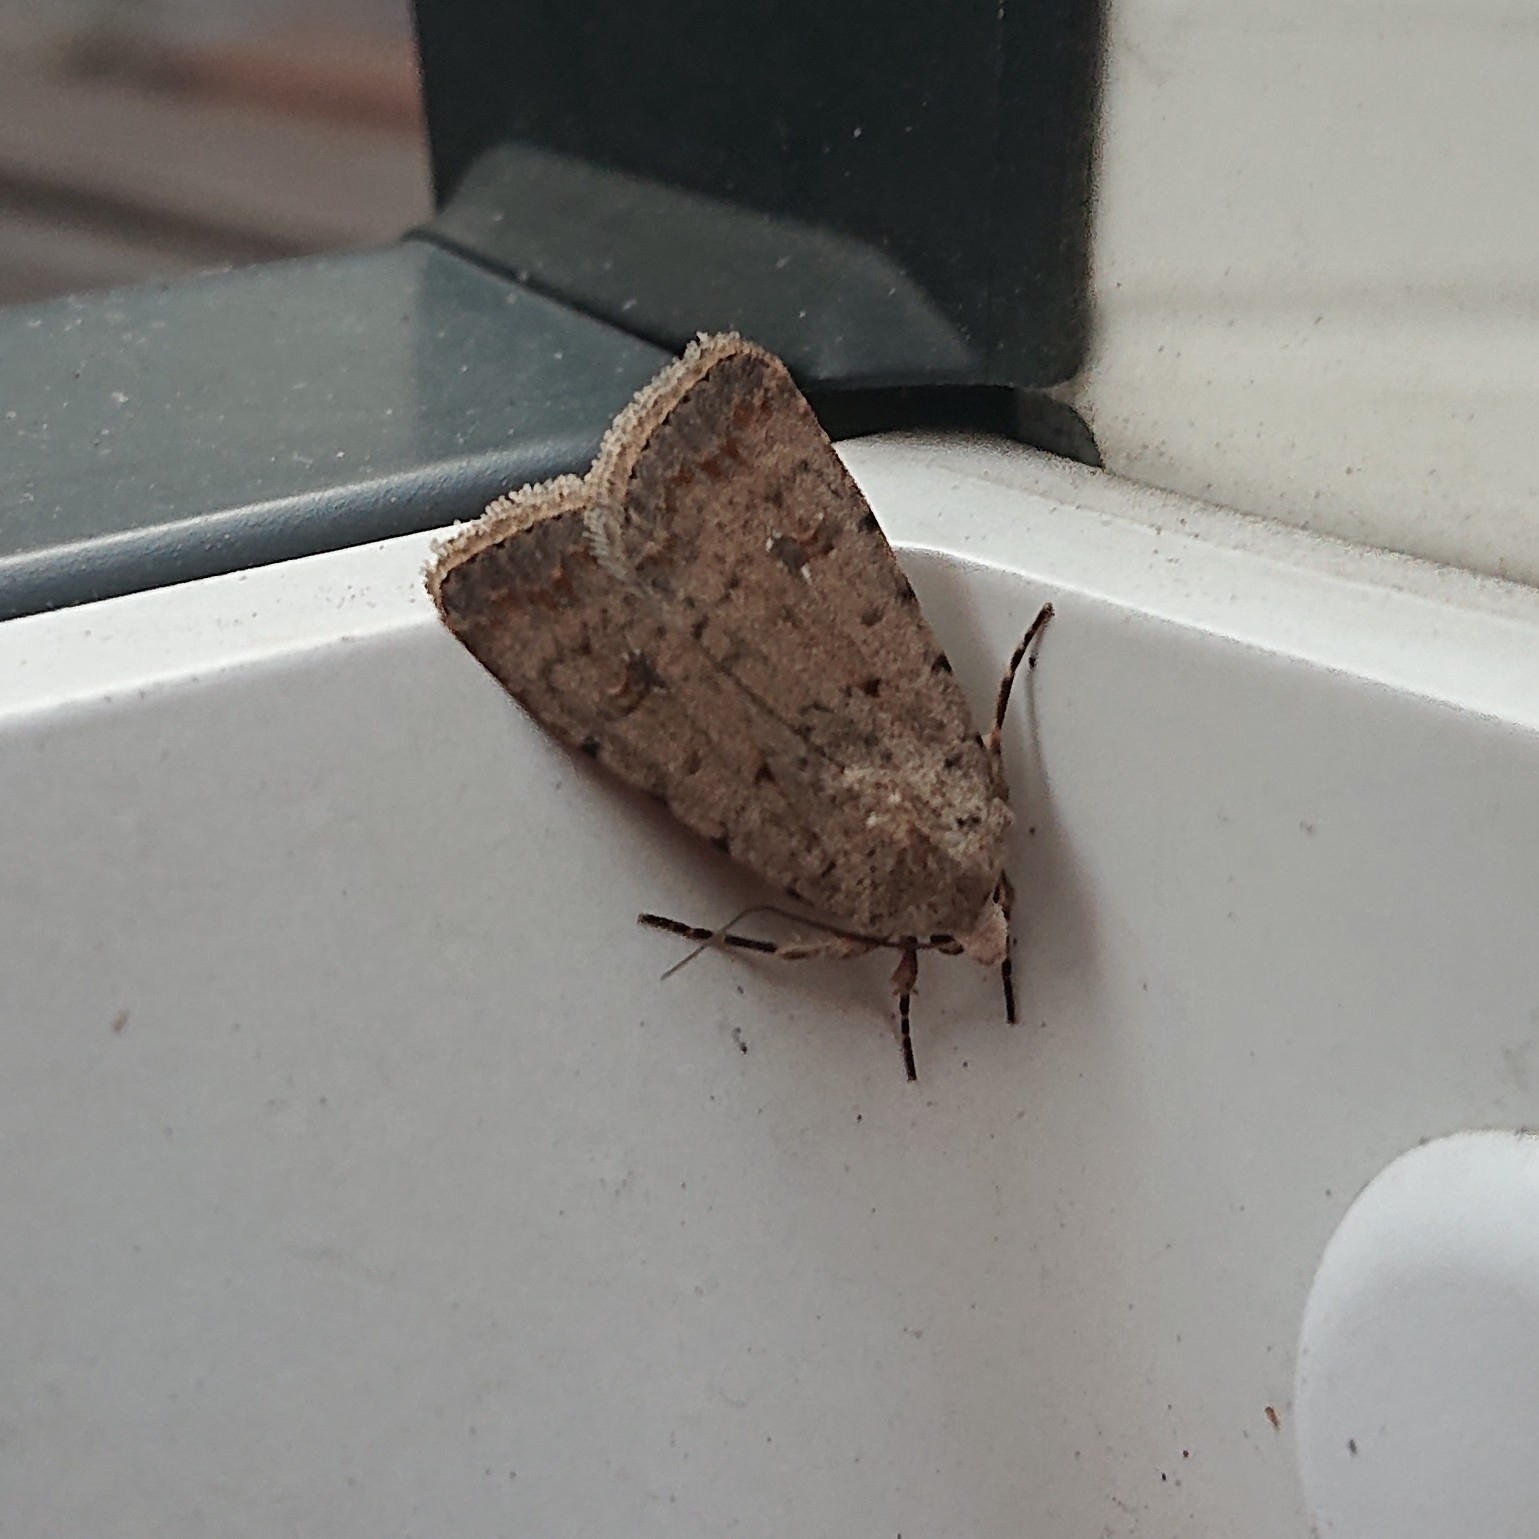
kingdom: Animalia
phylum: Arthropoda
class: Insecta
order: Lepidoptera
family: Noctuidae
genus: Caradrina
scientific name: Caradrina clavipalpis
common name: Pale mottled willow
